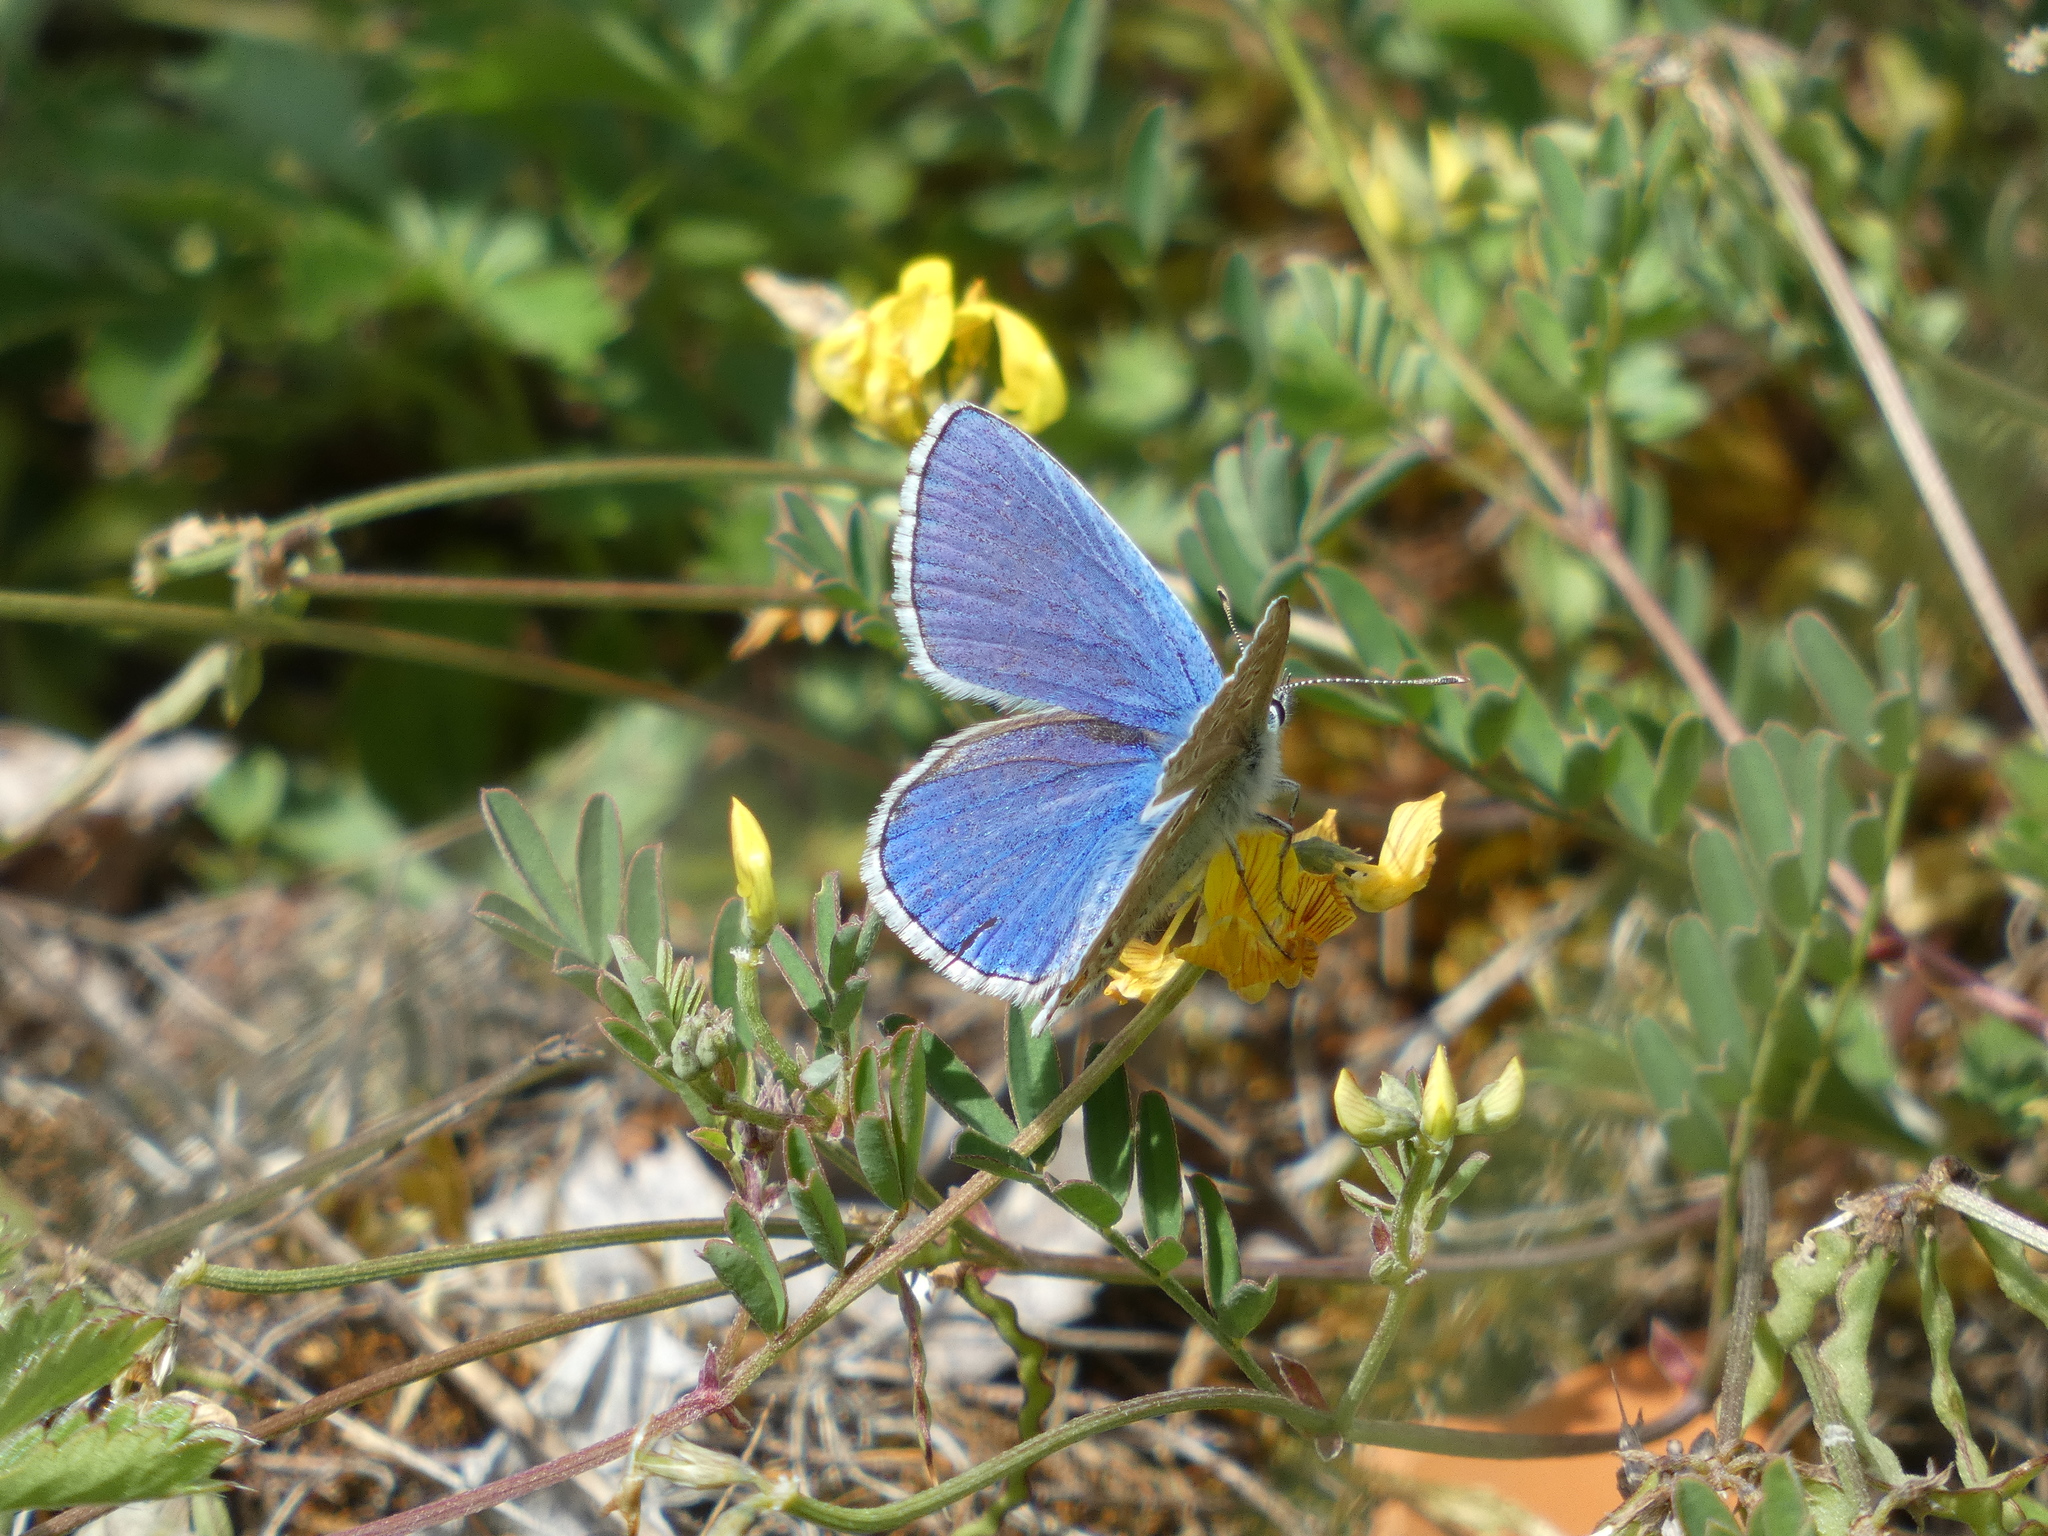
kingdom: Animalia
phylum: Arthropoda
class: Insecta
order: Lepidoptera
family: Lycaenidae
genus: Lysandra
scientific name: Lysandra bellargus
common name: Adonis blue
